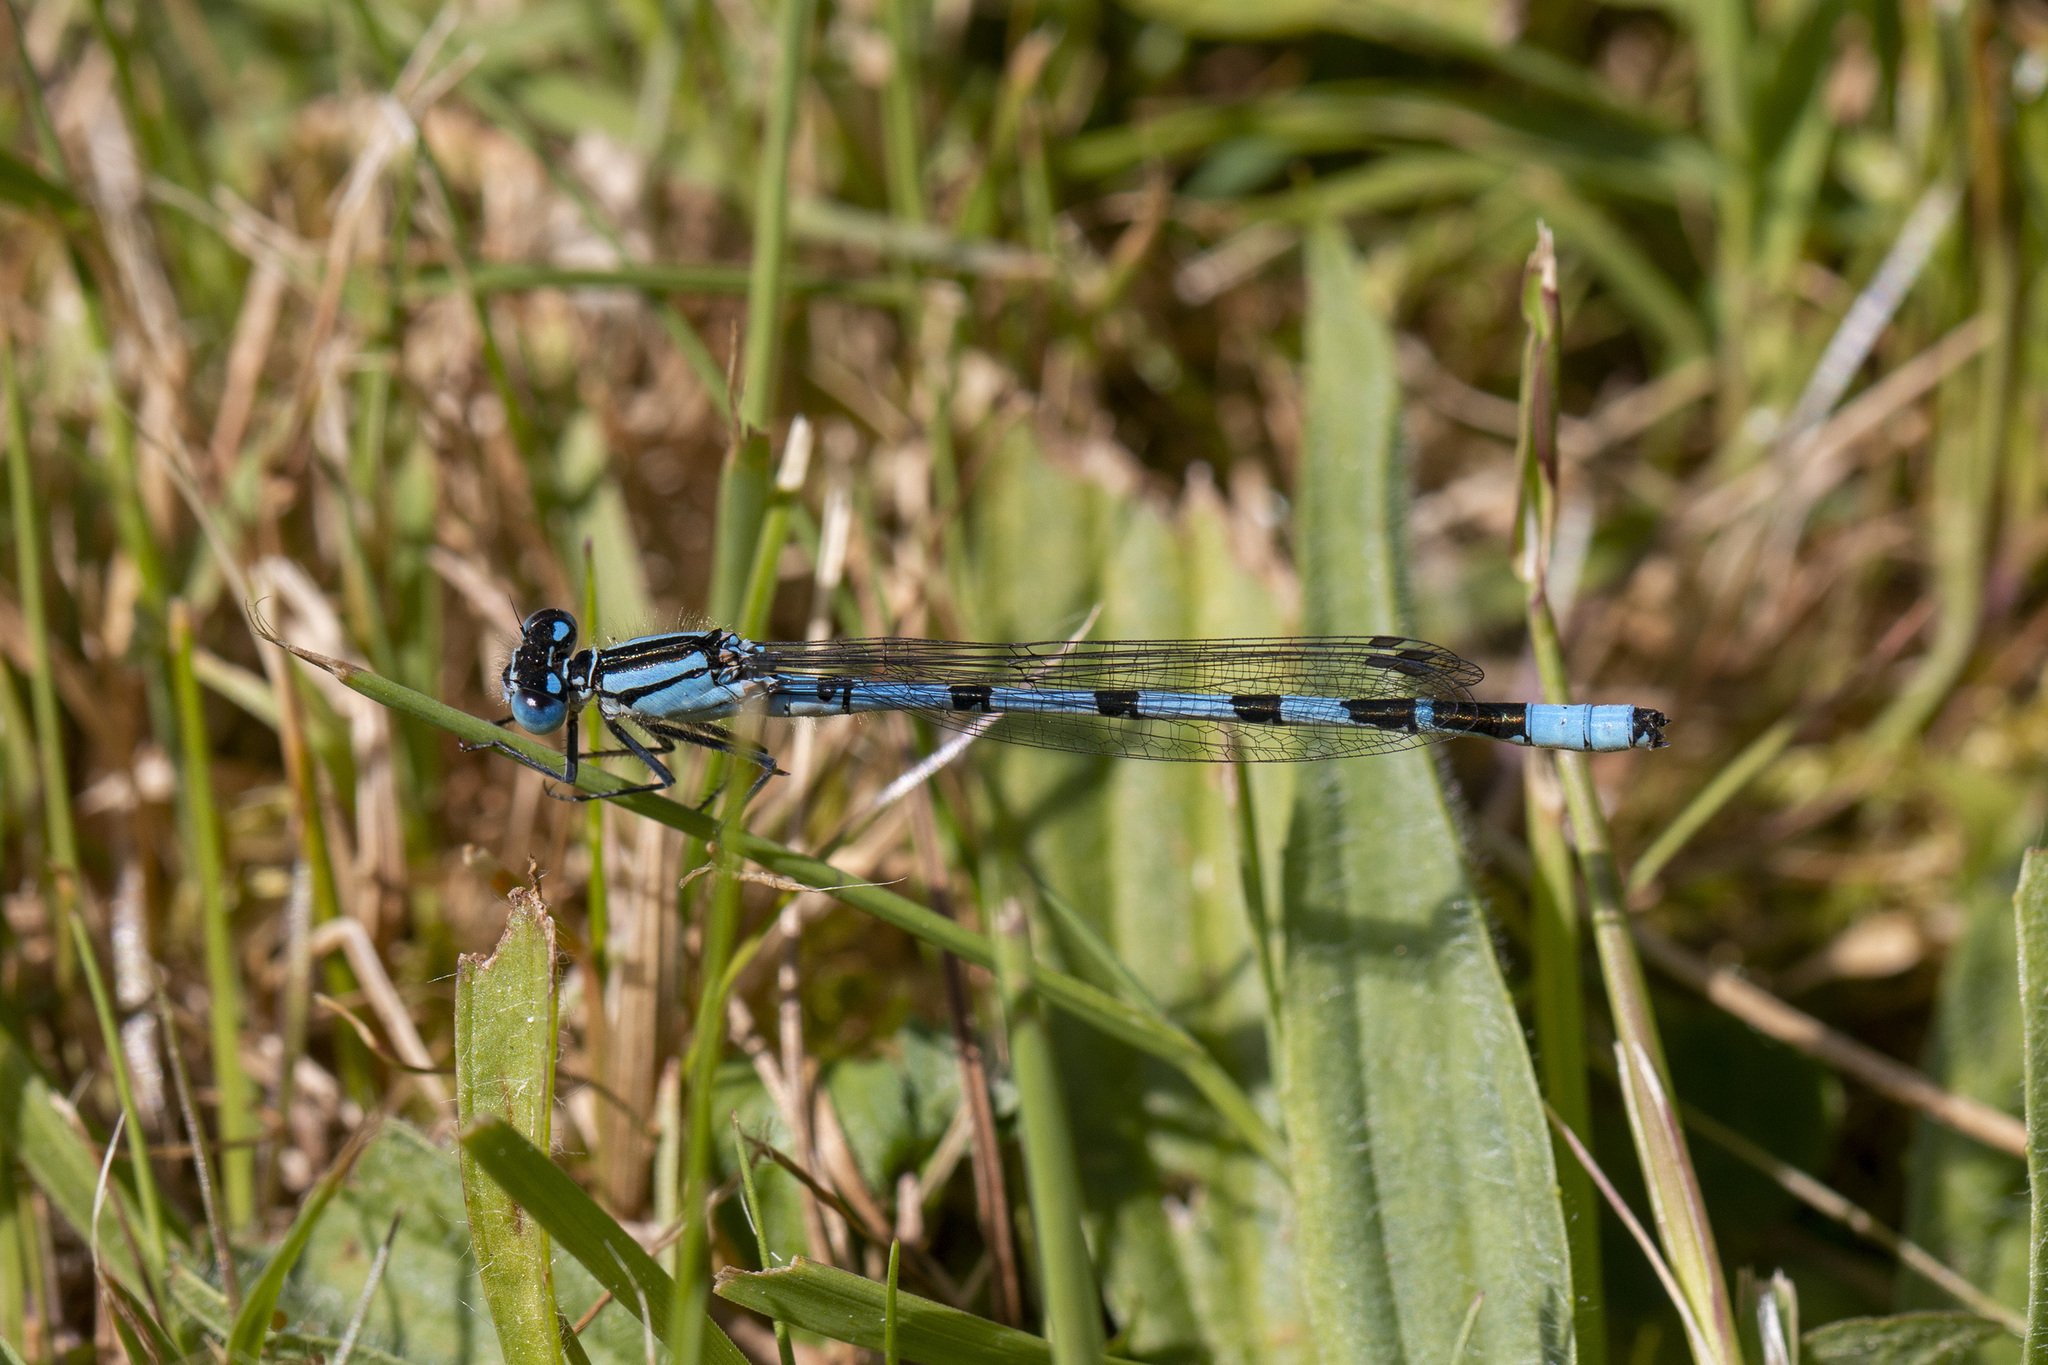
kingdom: Animalia
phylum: Arthropoda
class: Insecta
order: Odonata
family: Coenagrionidae
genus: Enallagma
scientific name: Enallagma cyathigerum
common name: Common blue damselfly
